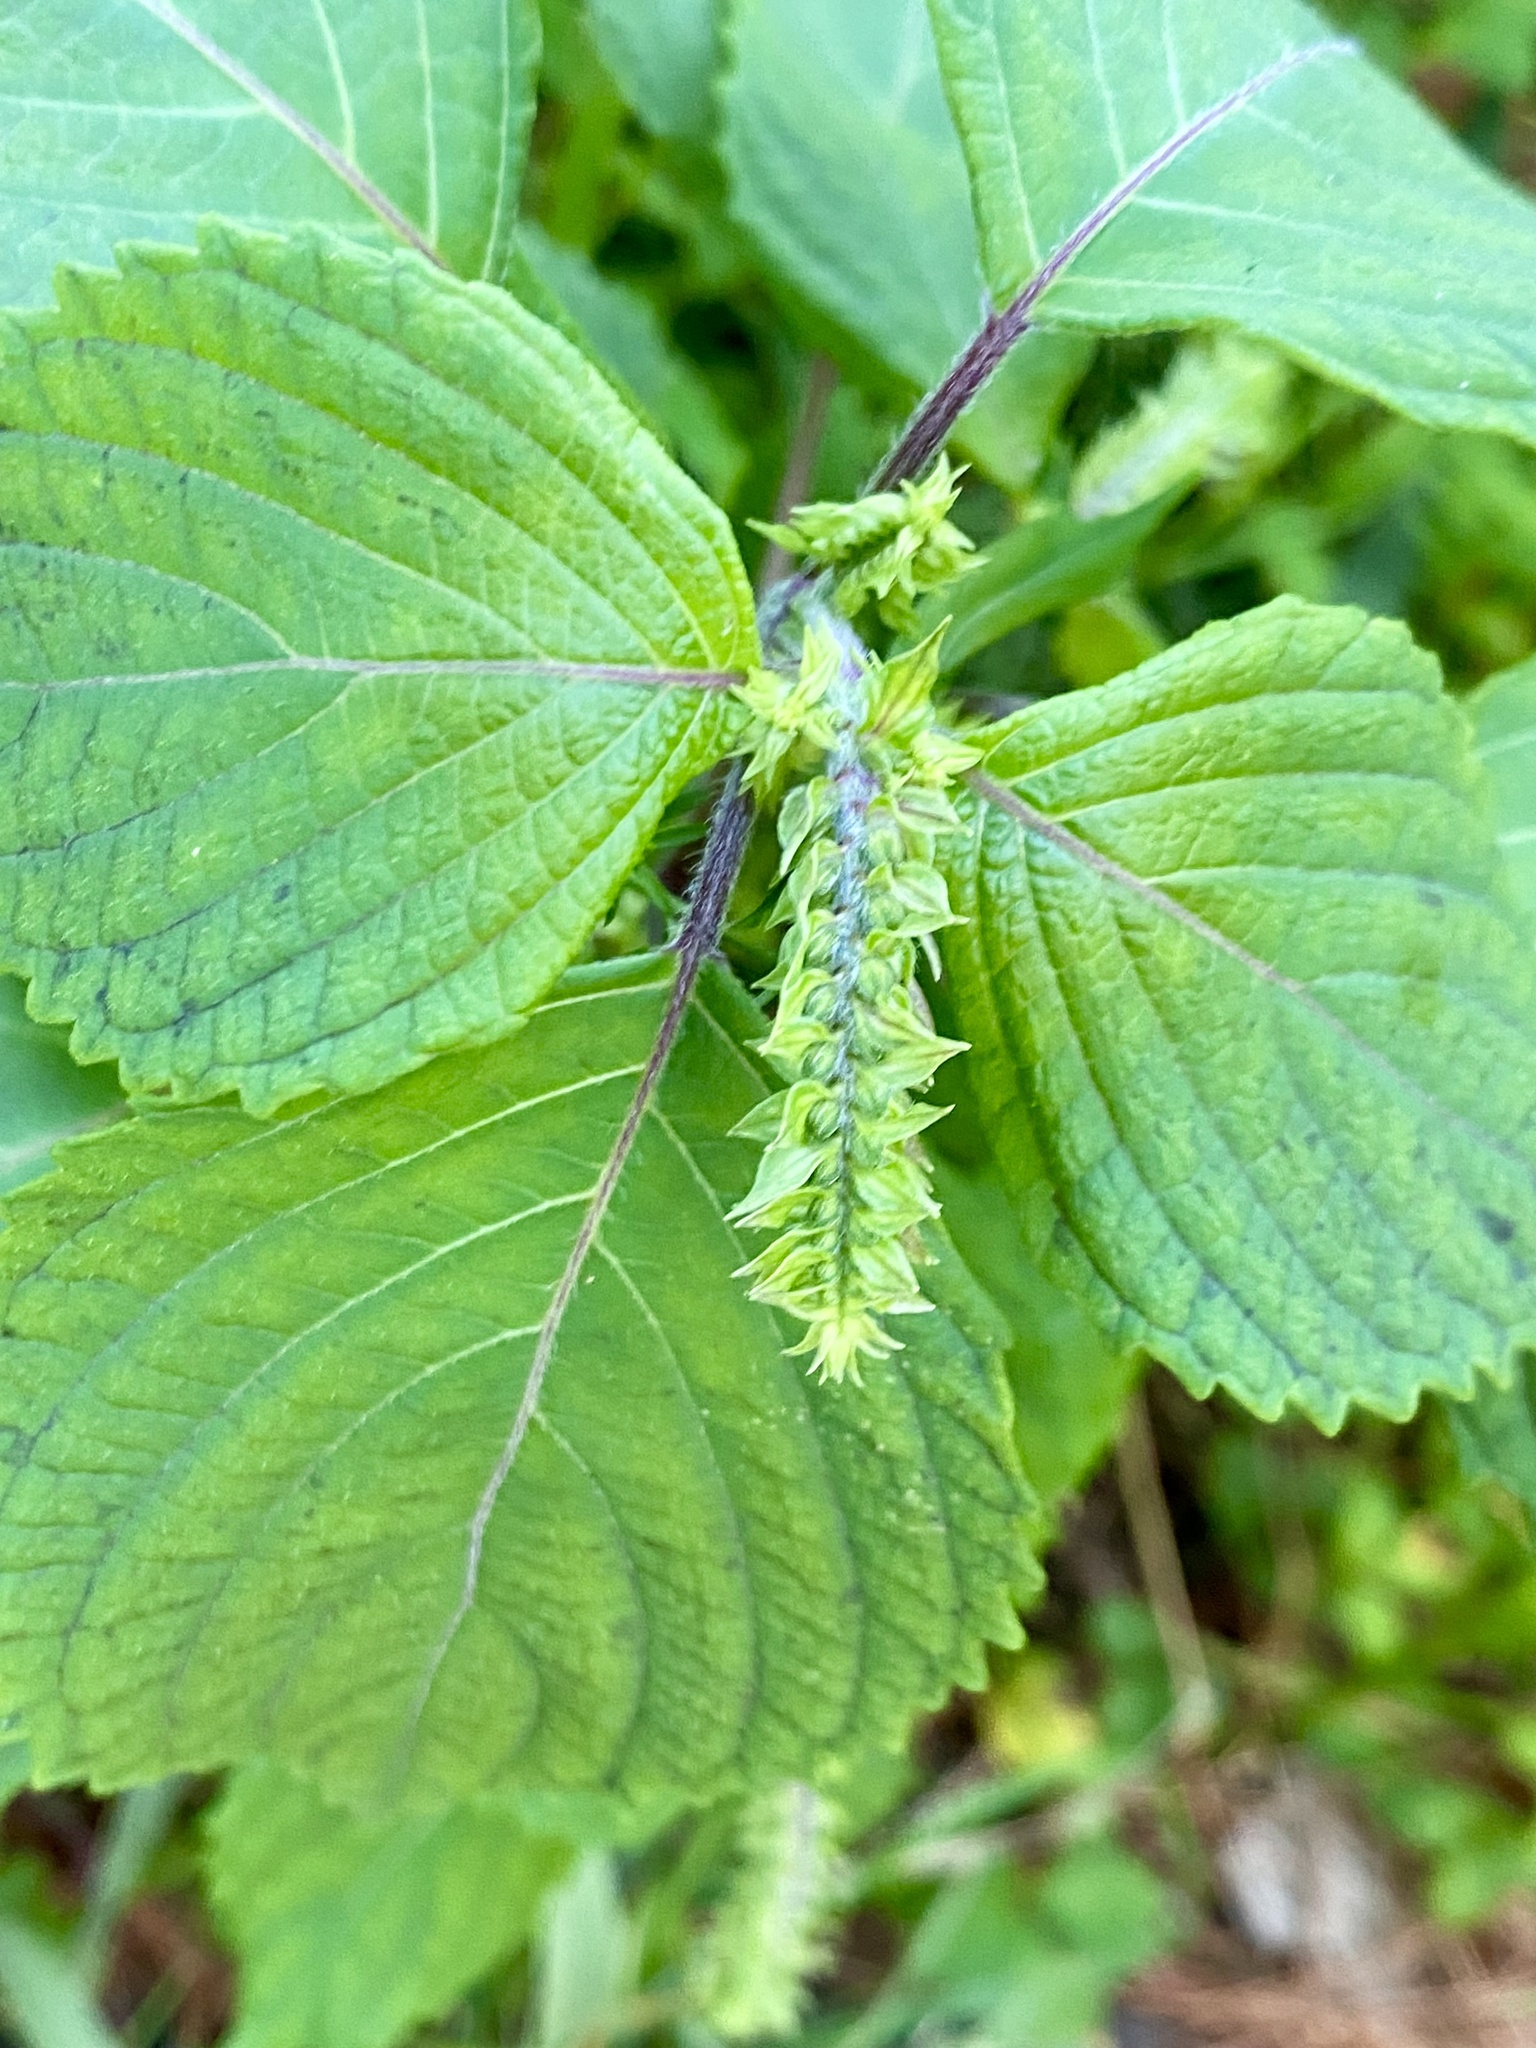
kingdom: Plantae
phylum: Tracheophyta
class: Magnoliopsida
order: Lamiales
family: Lamiaceae
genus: Perilla
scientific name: Perilla frutescens
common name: Perilla
